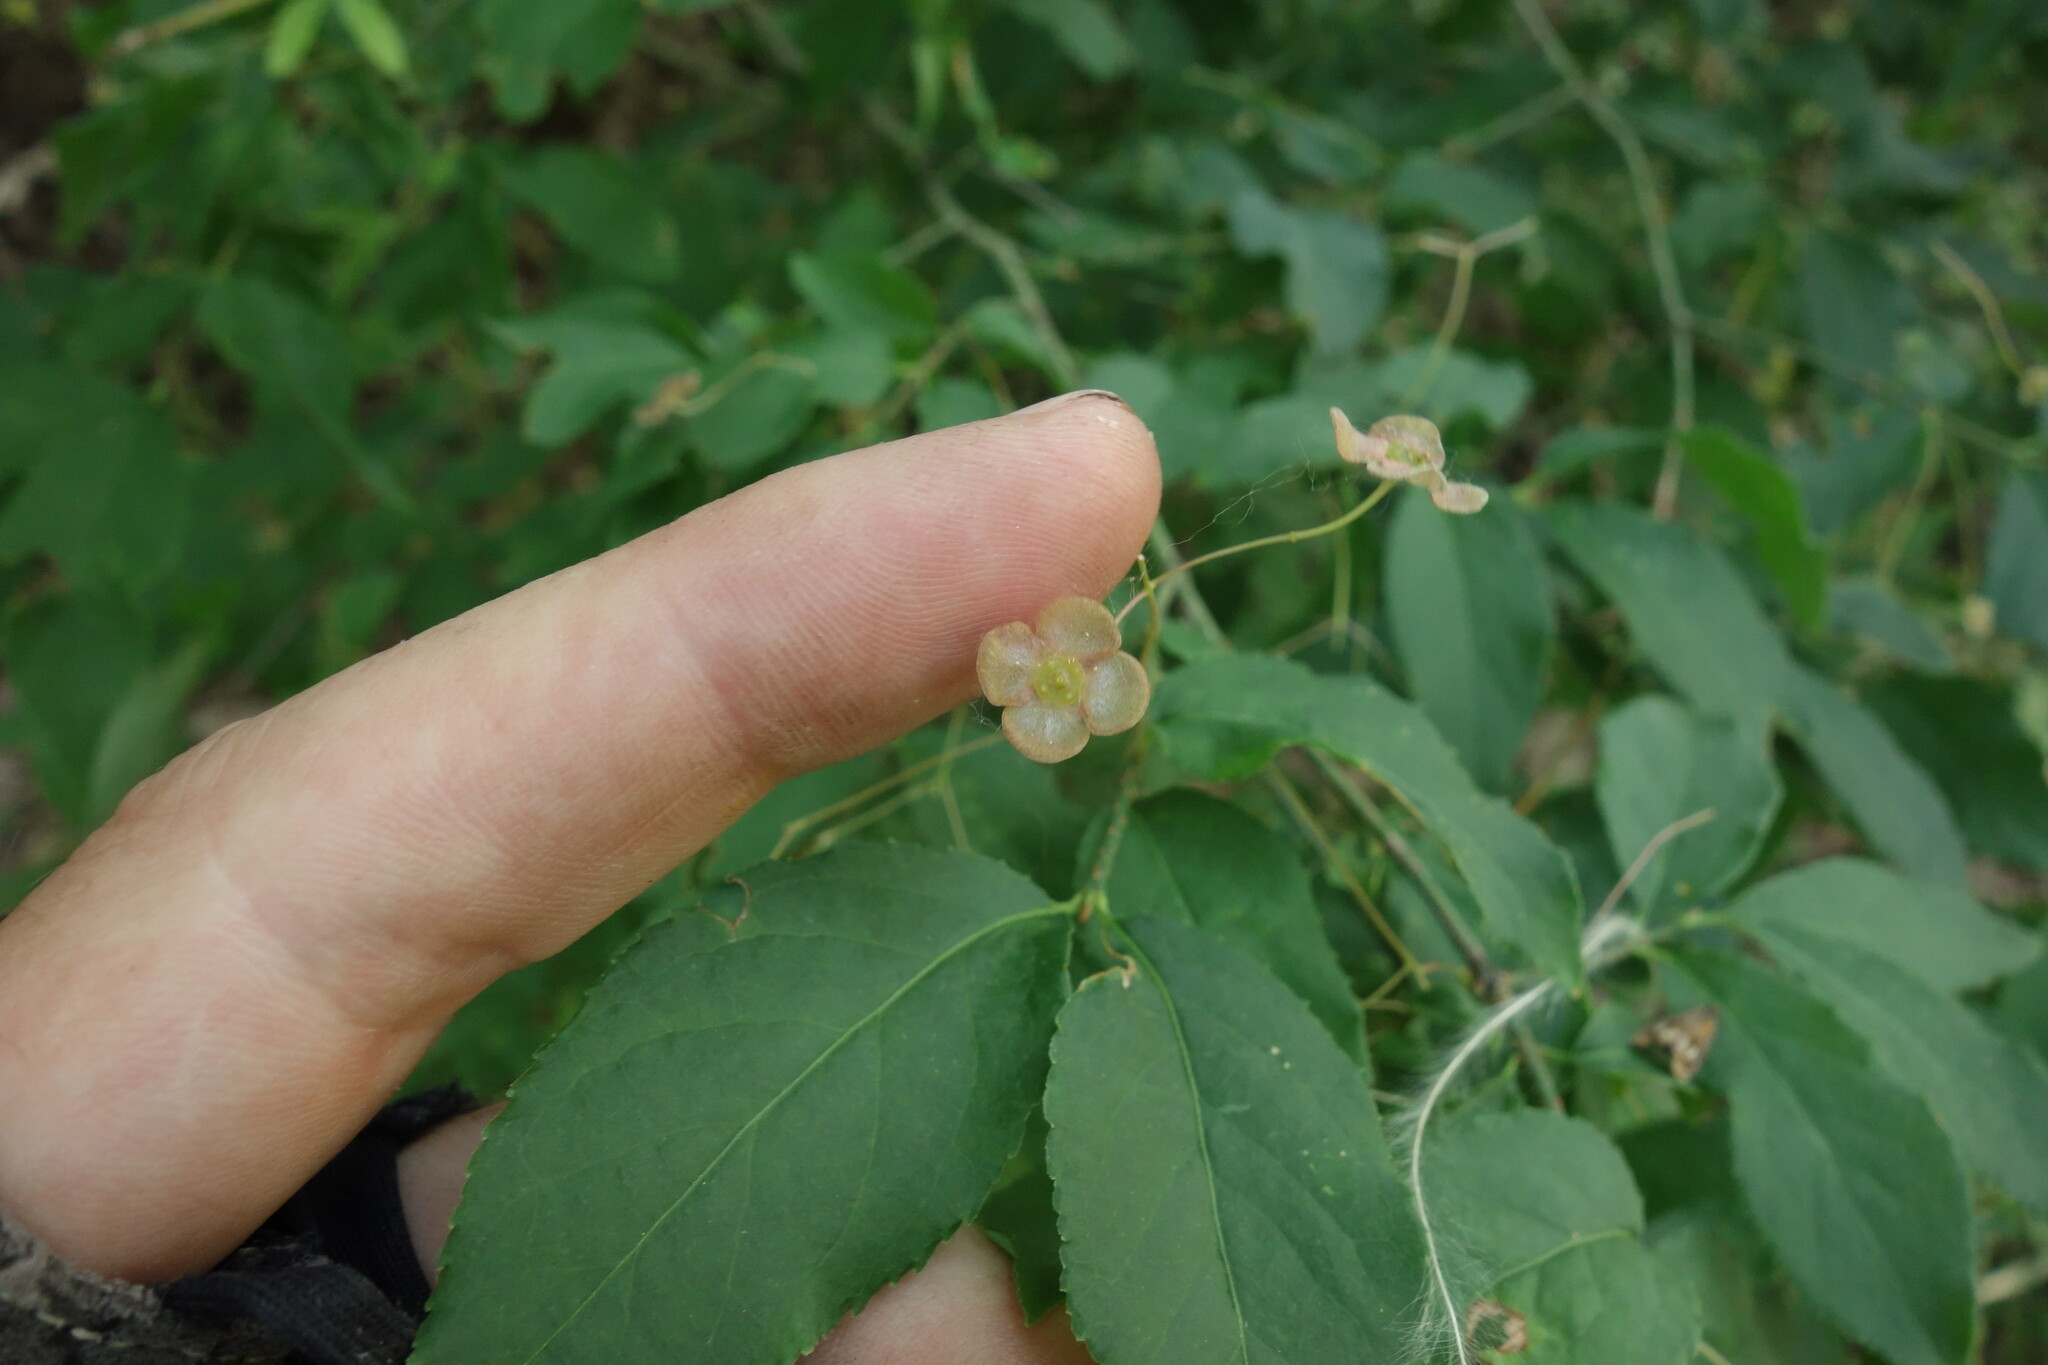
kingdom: Plantae
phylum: Tracheophyta
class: Magnoliopsida
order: Celastrales
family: Celastraceae
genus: Euonymus
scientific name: Euonymus verrucosus
